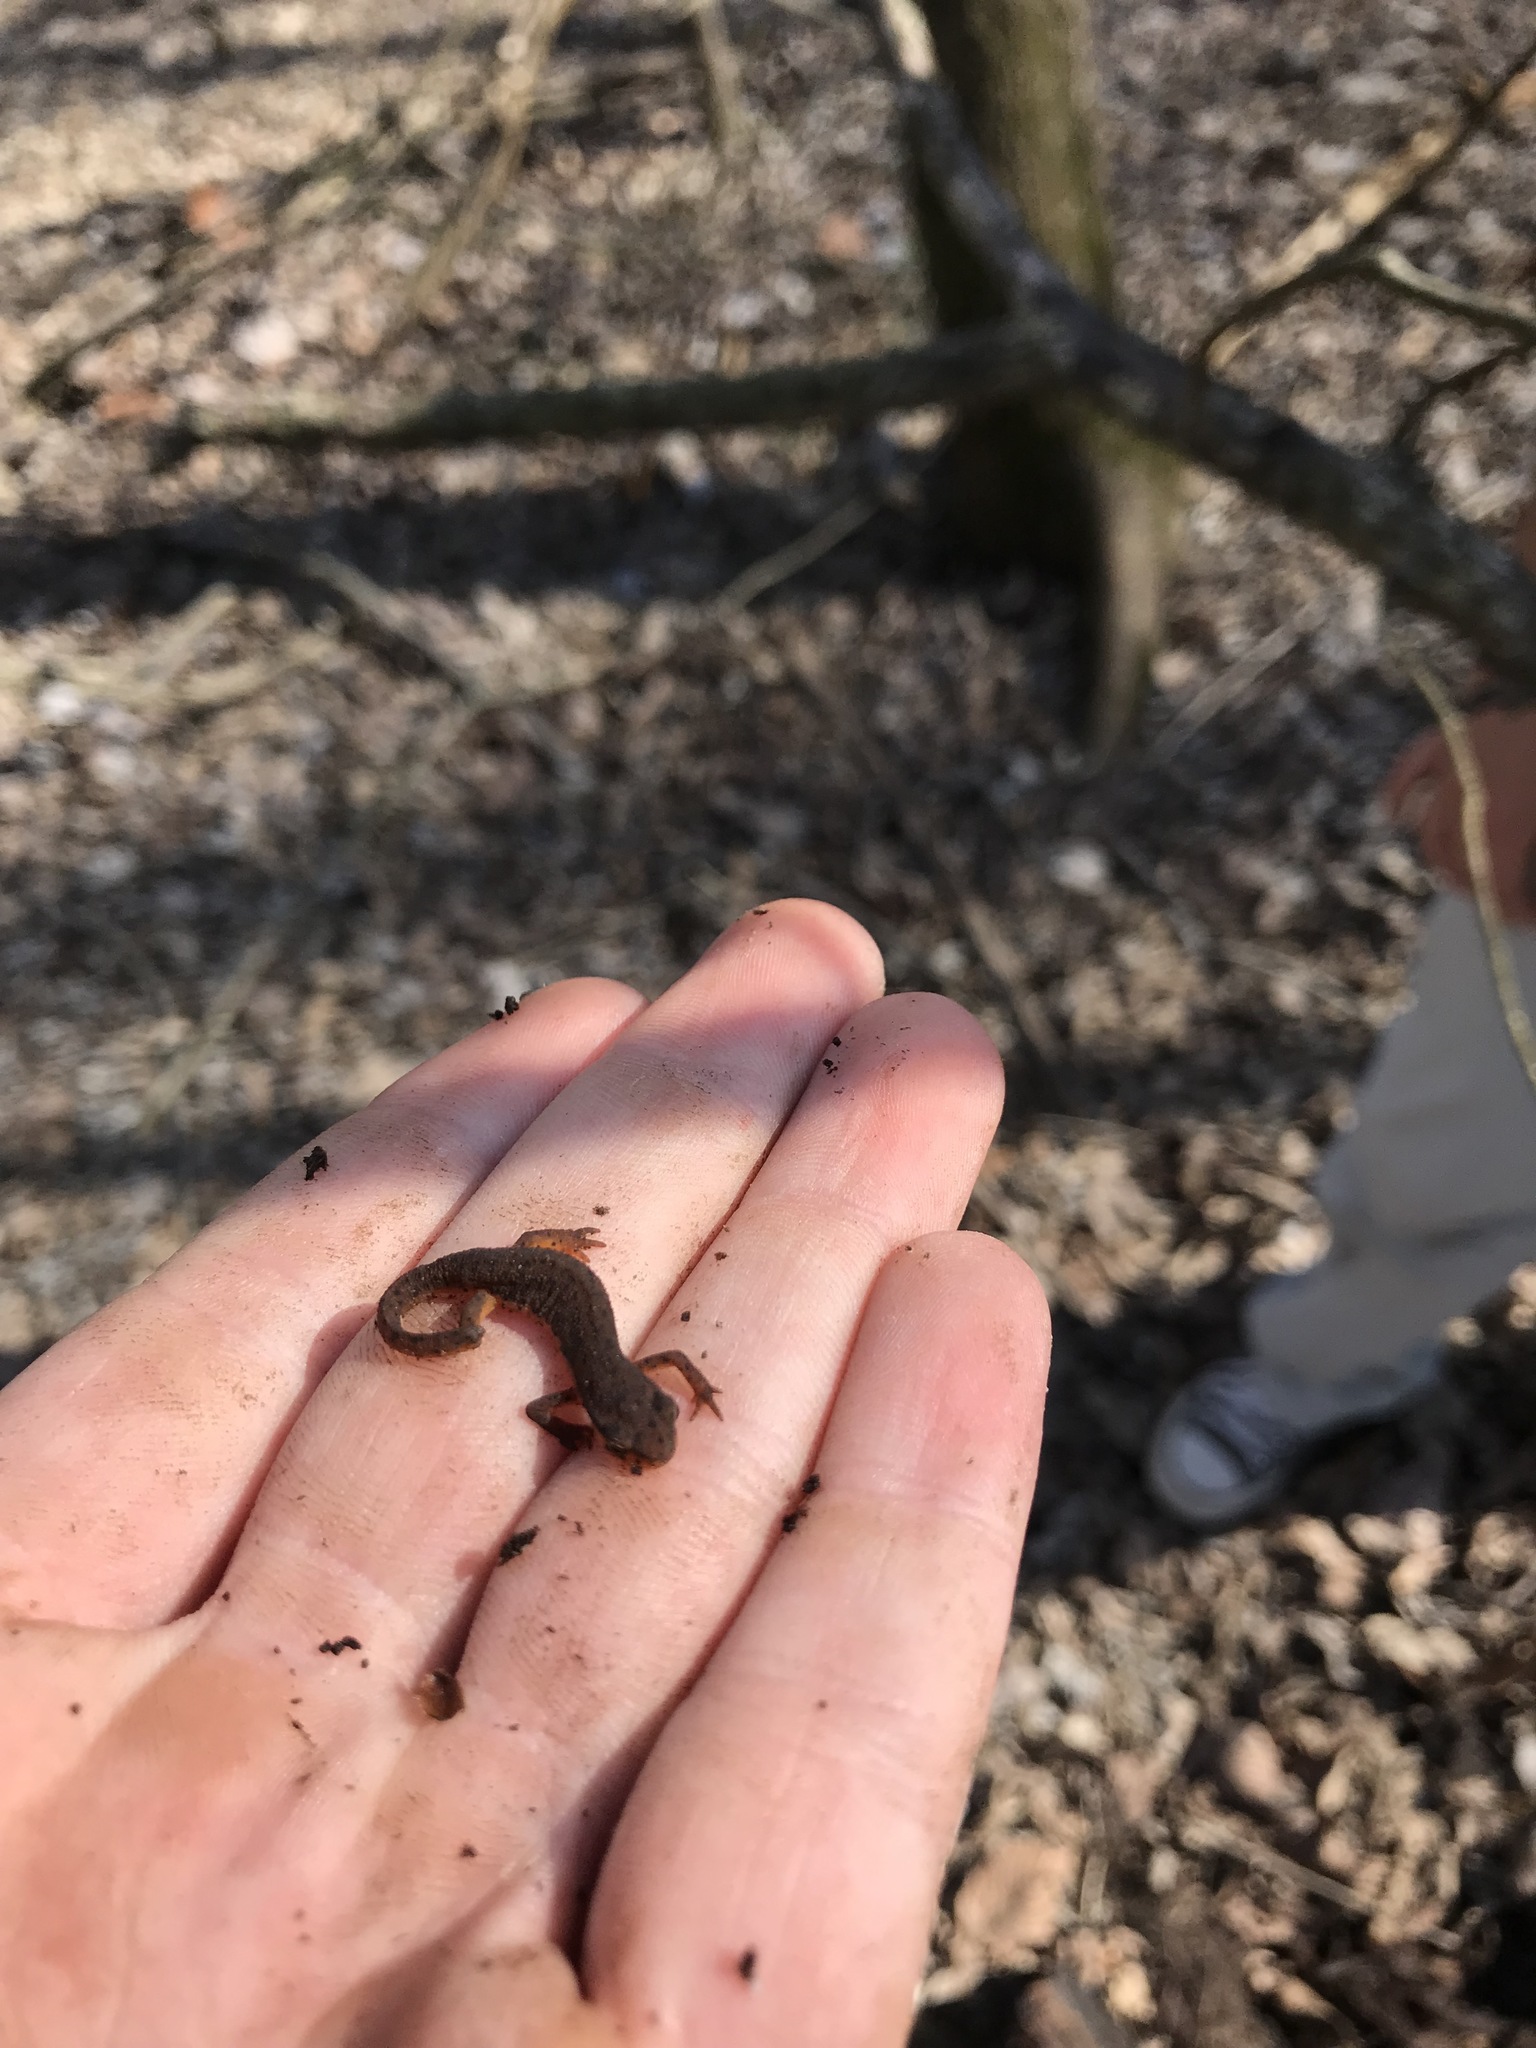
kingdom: Animalia
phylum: Chordata
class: Amphibia
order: Caudata
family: Salamandridae
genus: Notophthalmus
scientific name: Notophthalmus viridescens
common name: Eastern newt
